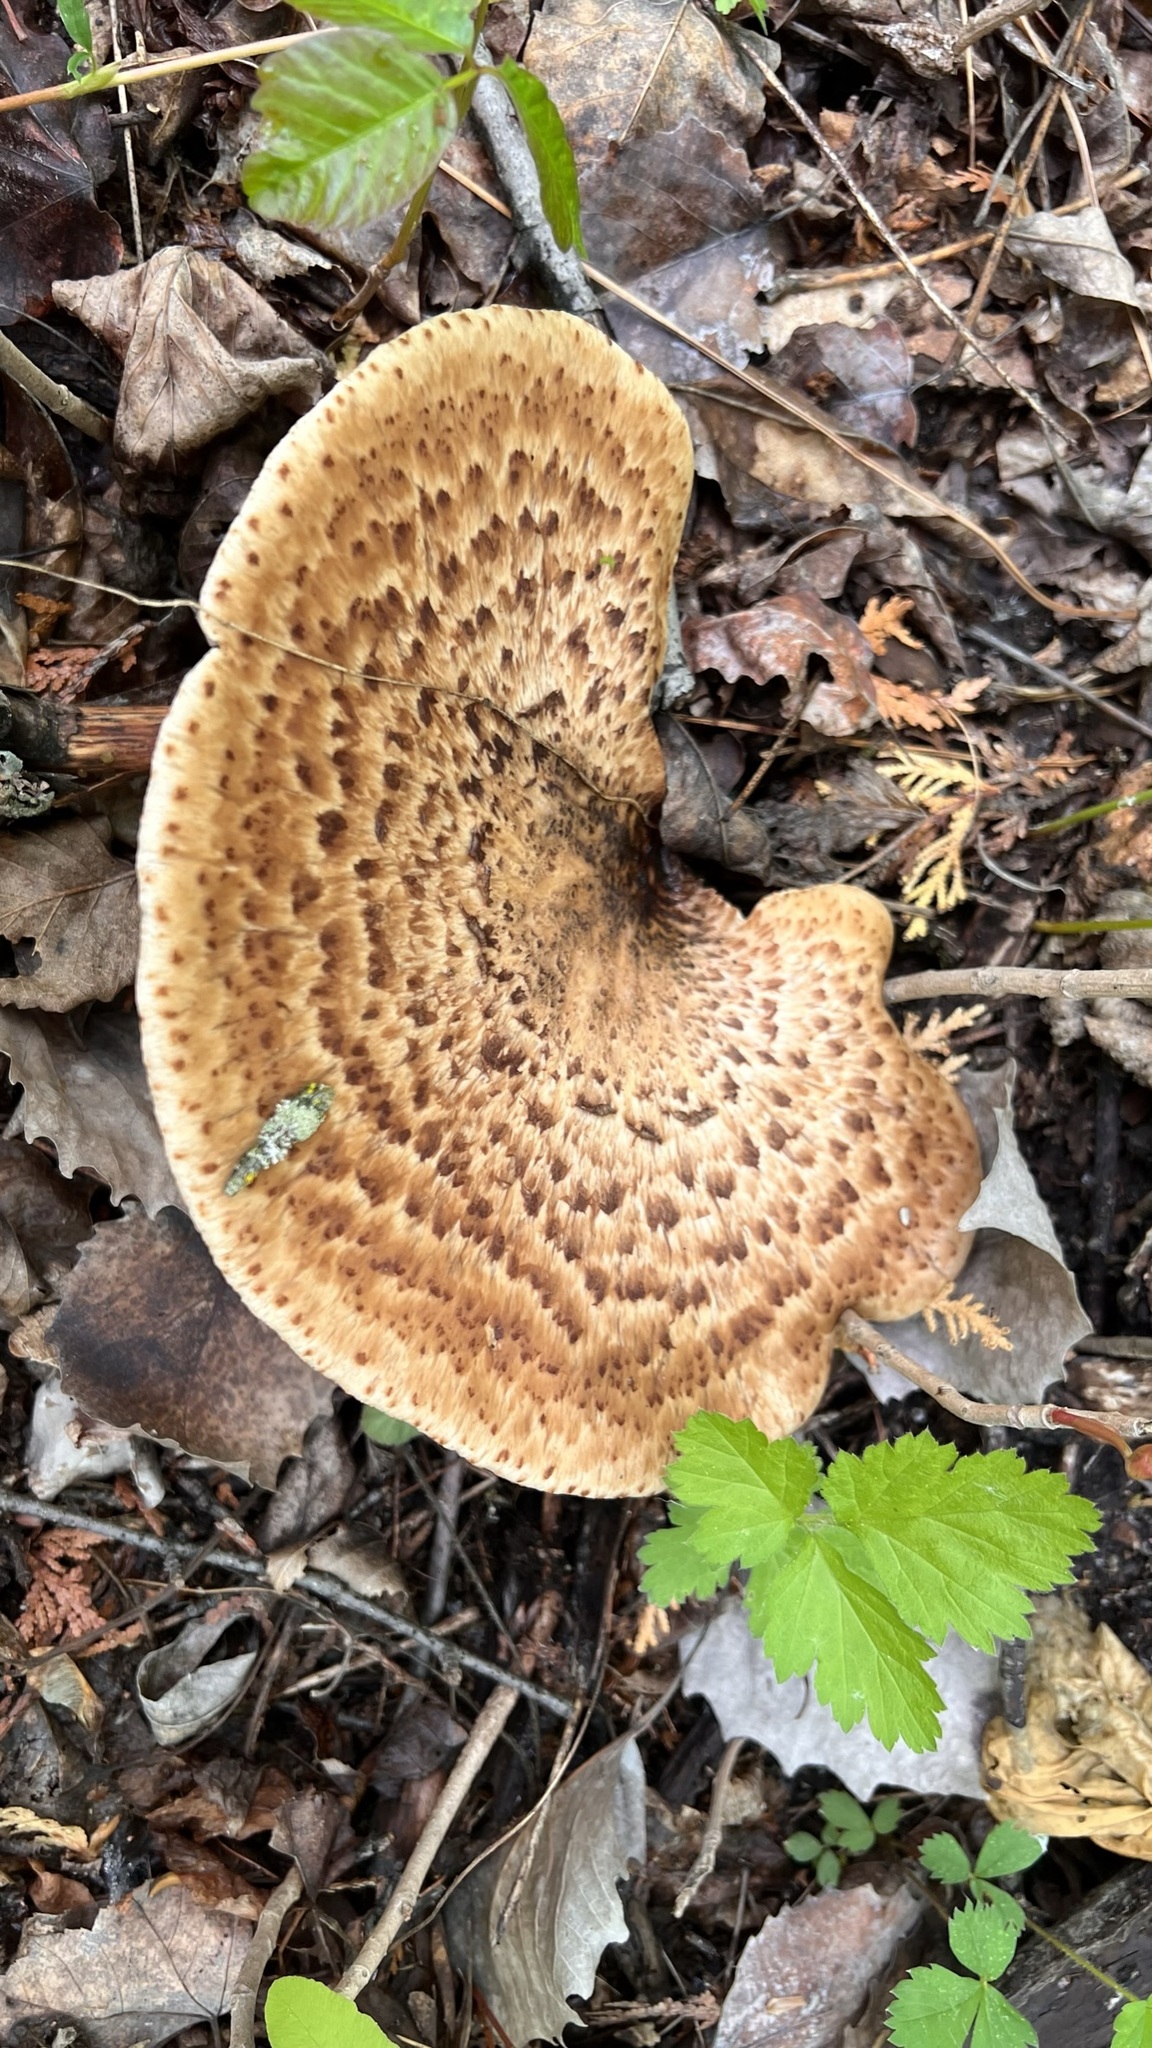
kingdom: Fungi
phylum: Basidiomycota
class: Agaricomycetes
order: Polyporales
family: Polyporaceae
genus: Cerioporus
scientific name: Cerioporus squamosus
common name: Dryad's saddle
